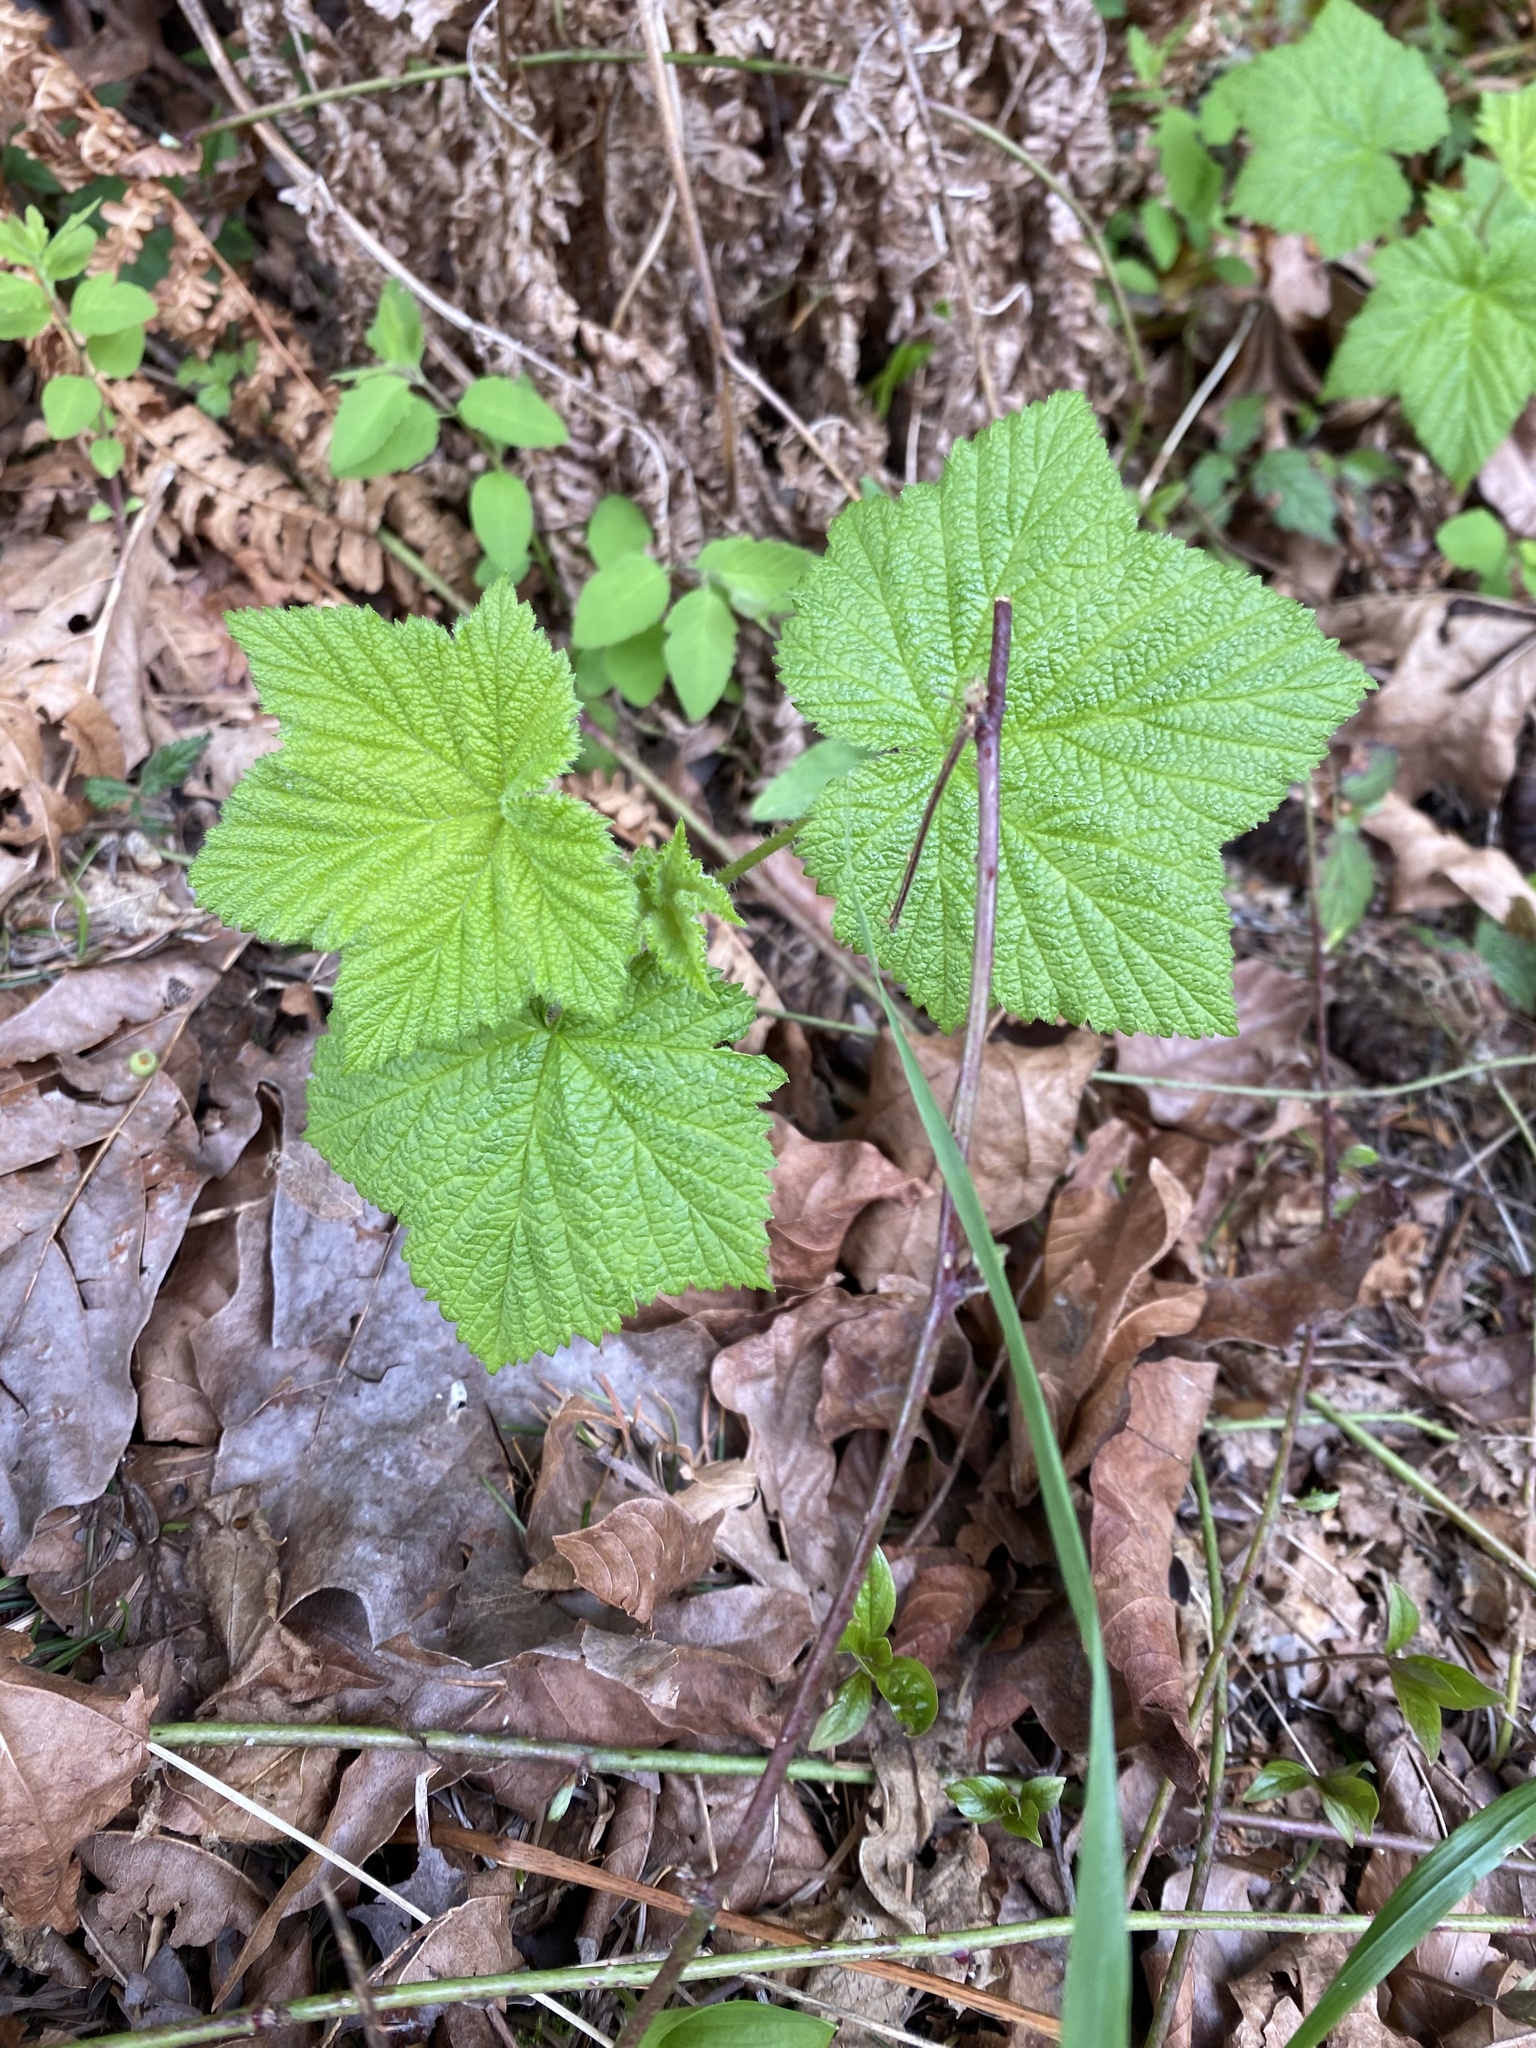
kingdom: Plantae
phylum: Tracheophyta
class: Magnoliopsida
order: Rosales
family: Rosaceae
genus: Rubus
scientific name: Rubus parviflorus
